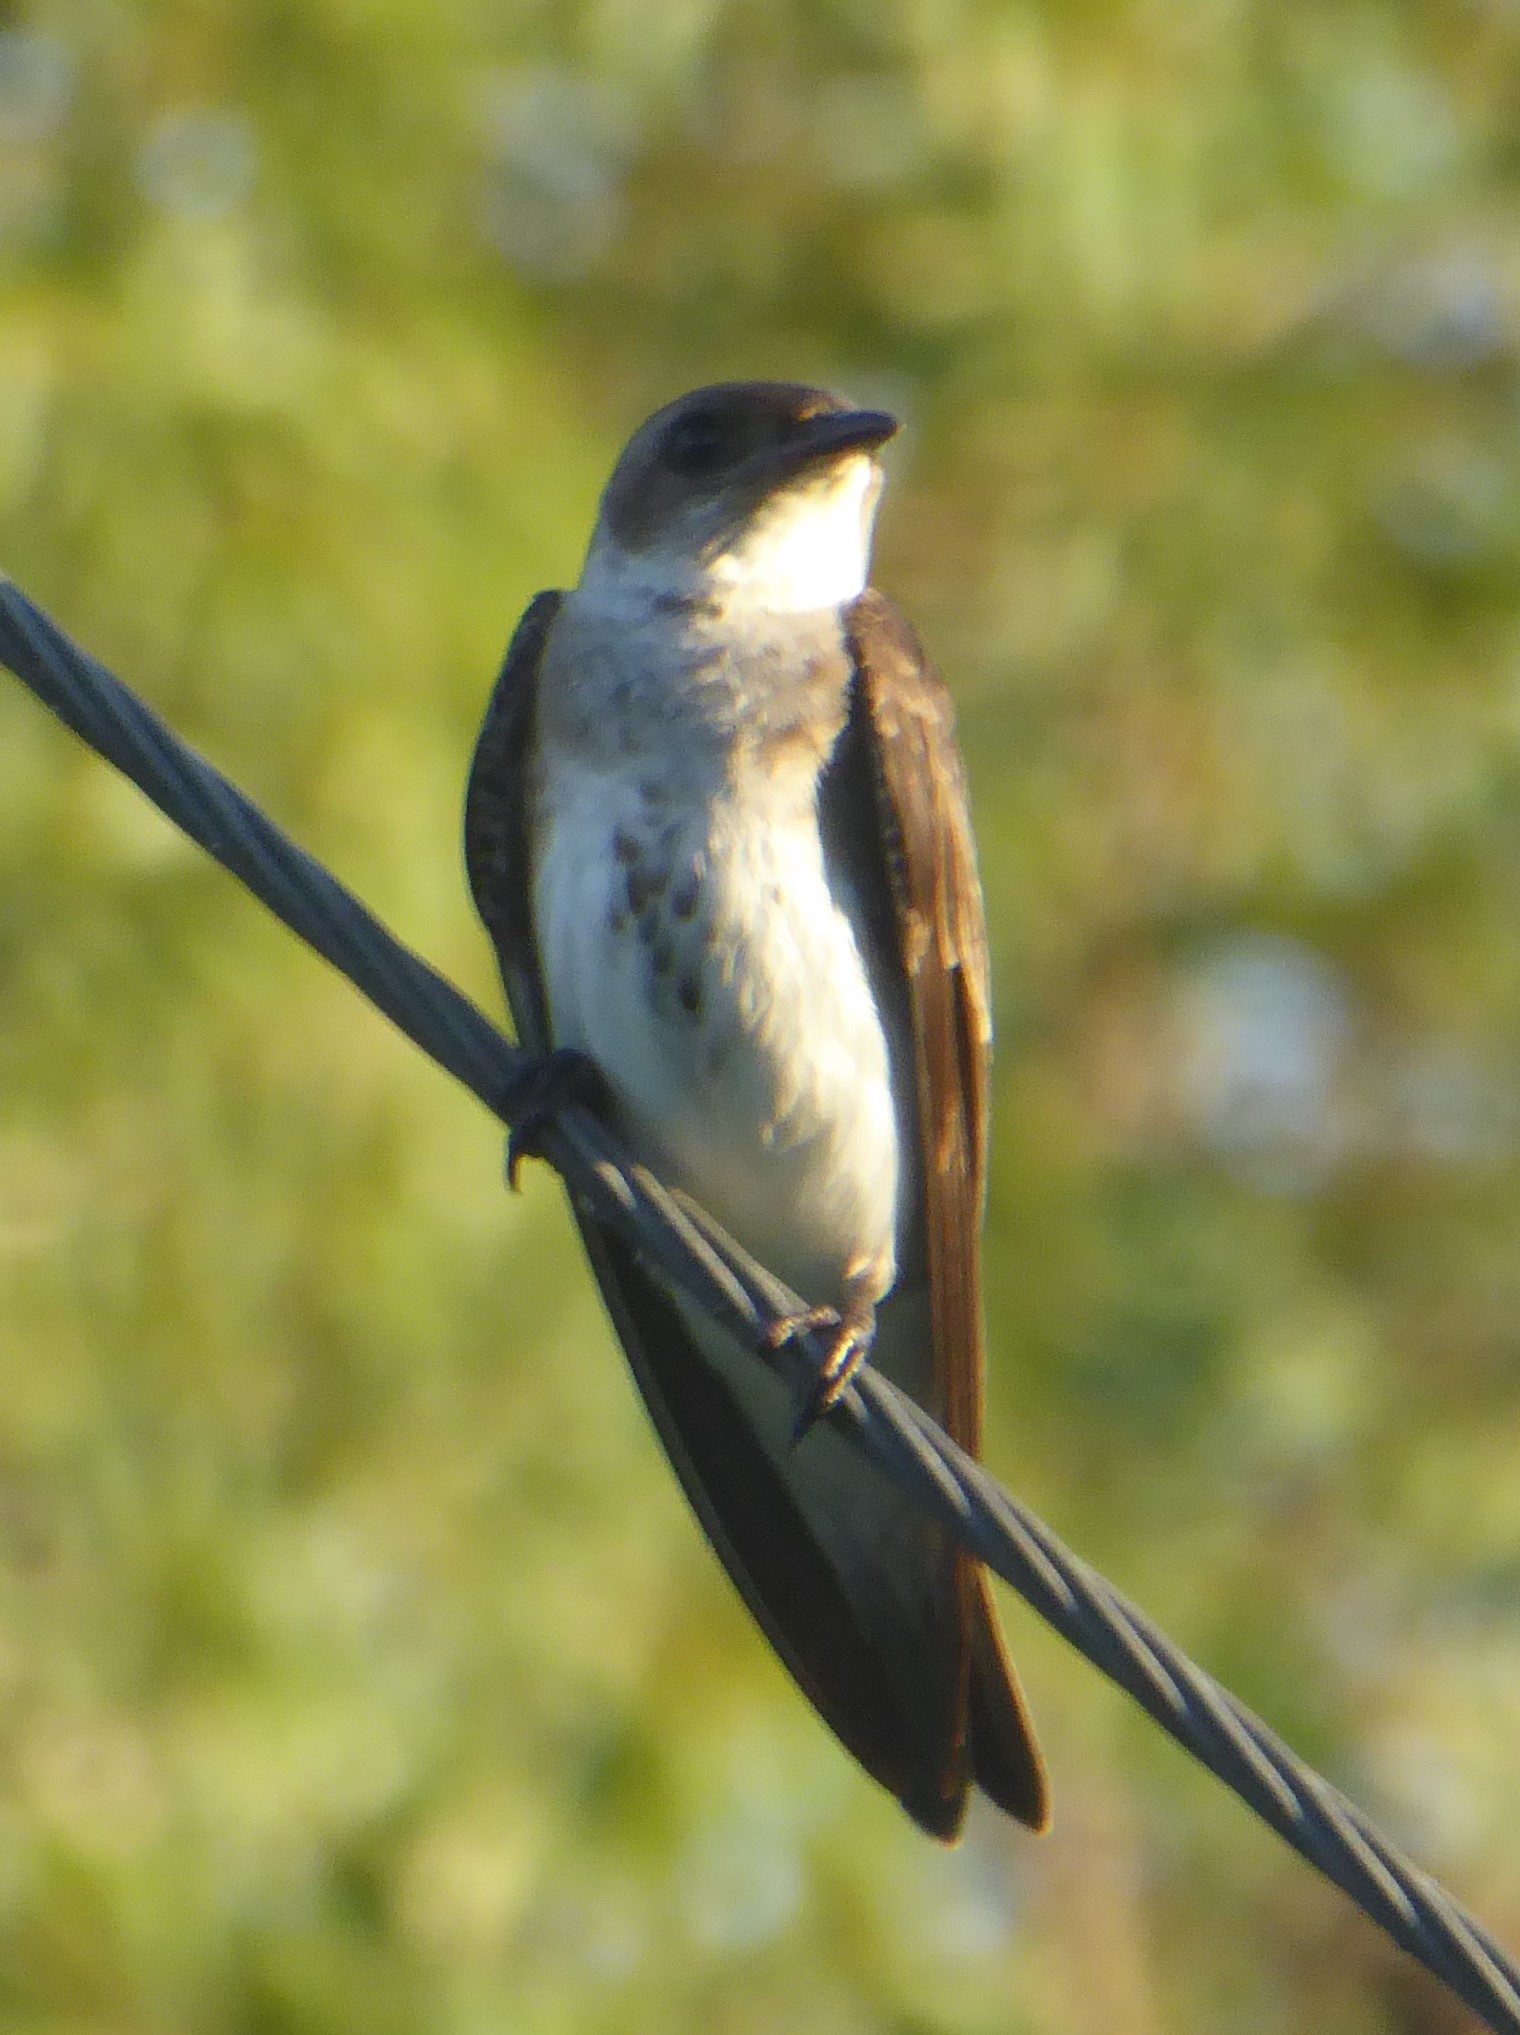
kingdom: Animalia
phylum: Chordata
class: Aves
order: Passeriformes
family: Hirundinidae
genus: Progne
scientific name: Progne tapera
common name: Brown-chested martin
